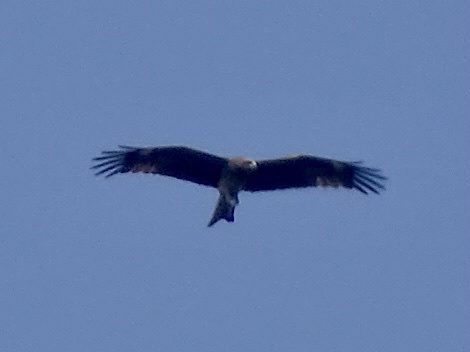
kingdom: Animalia
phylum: Chordata
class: Aves
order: Accipitriformes
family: Accipitridae
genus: Milvus
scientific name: Milvus migrans
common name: Black kite
